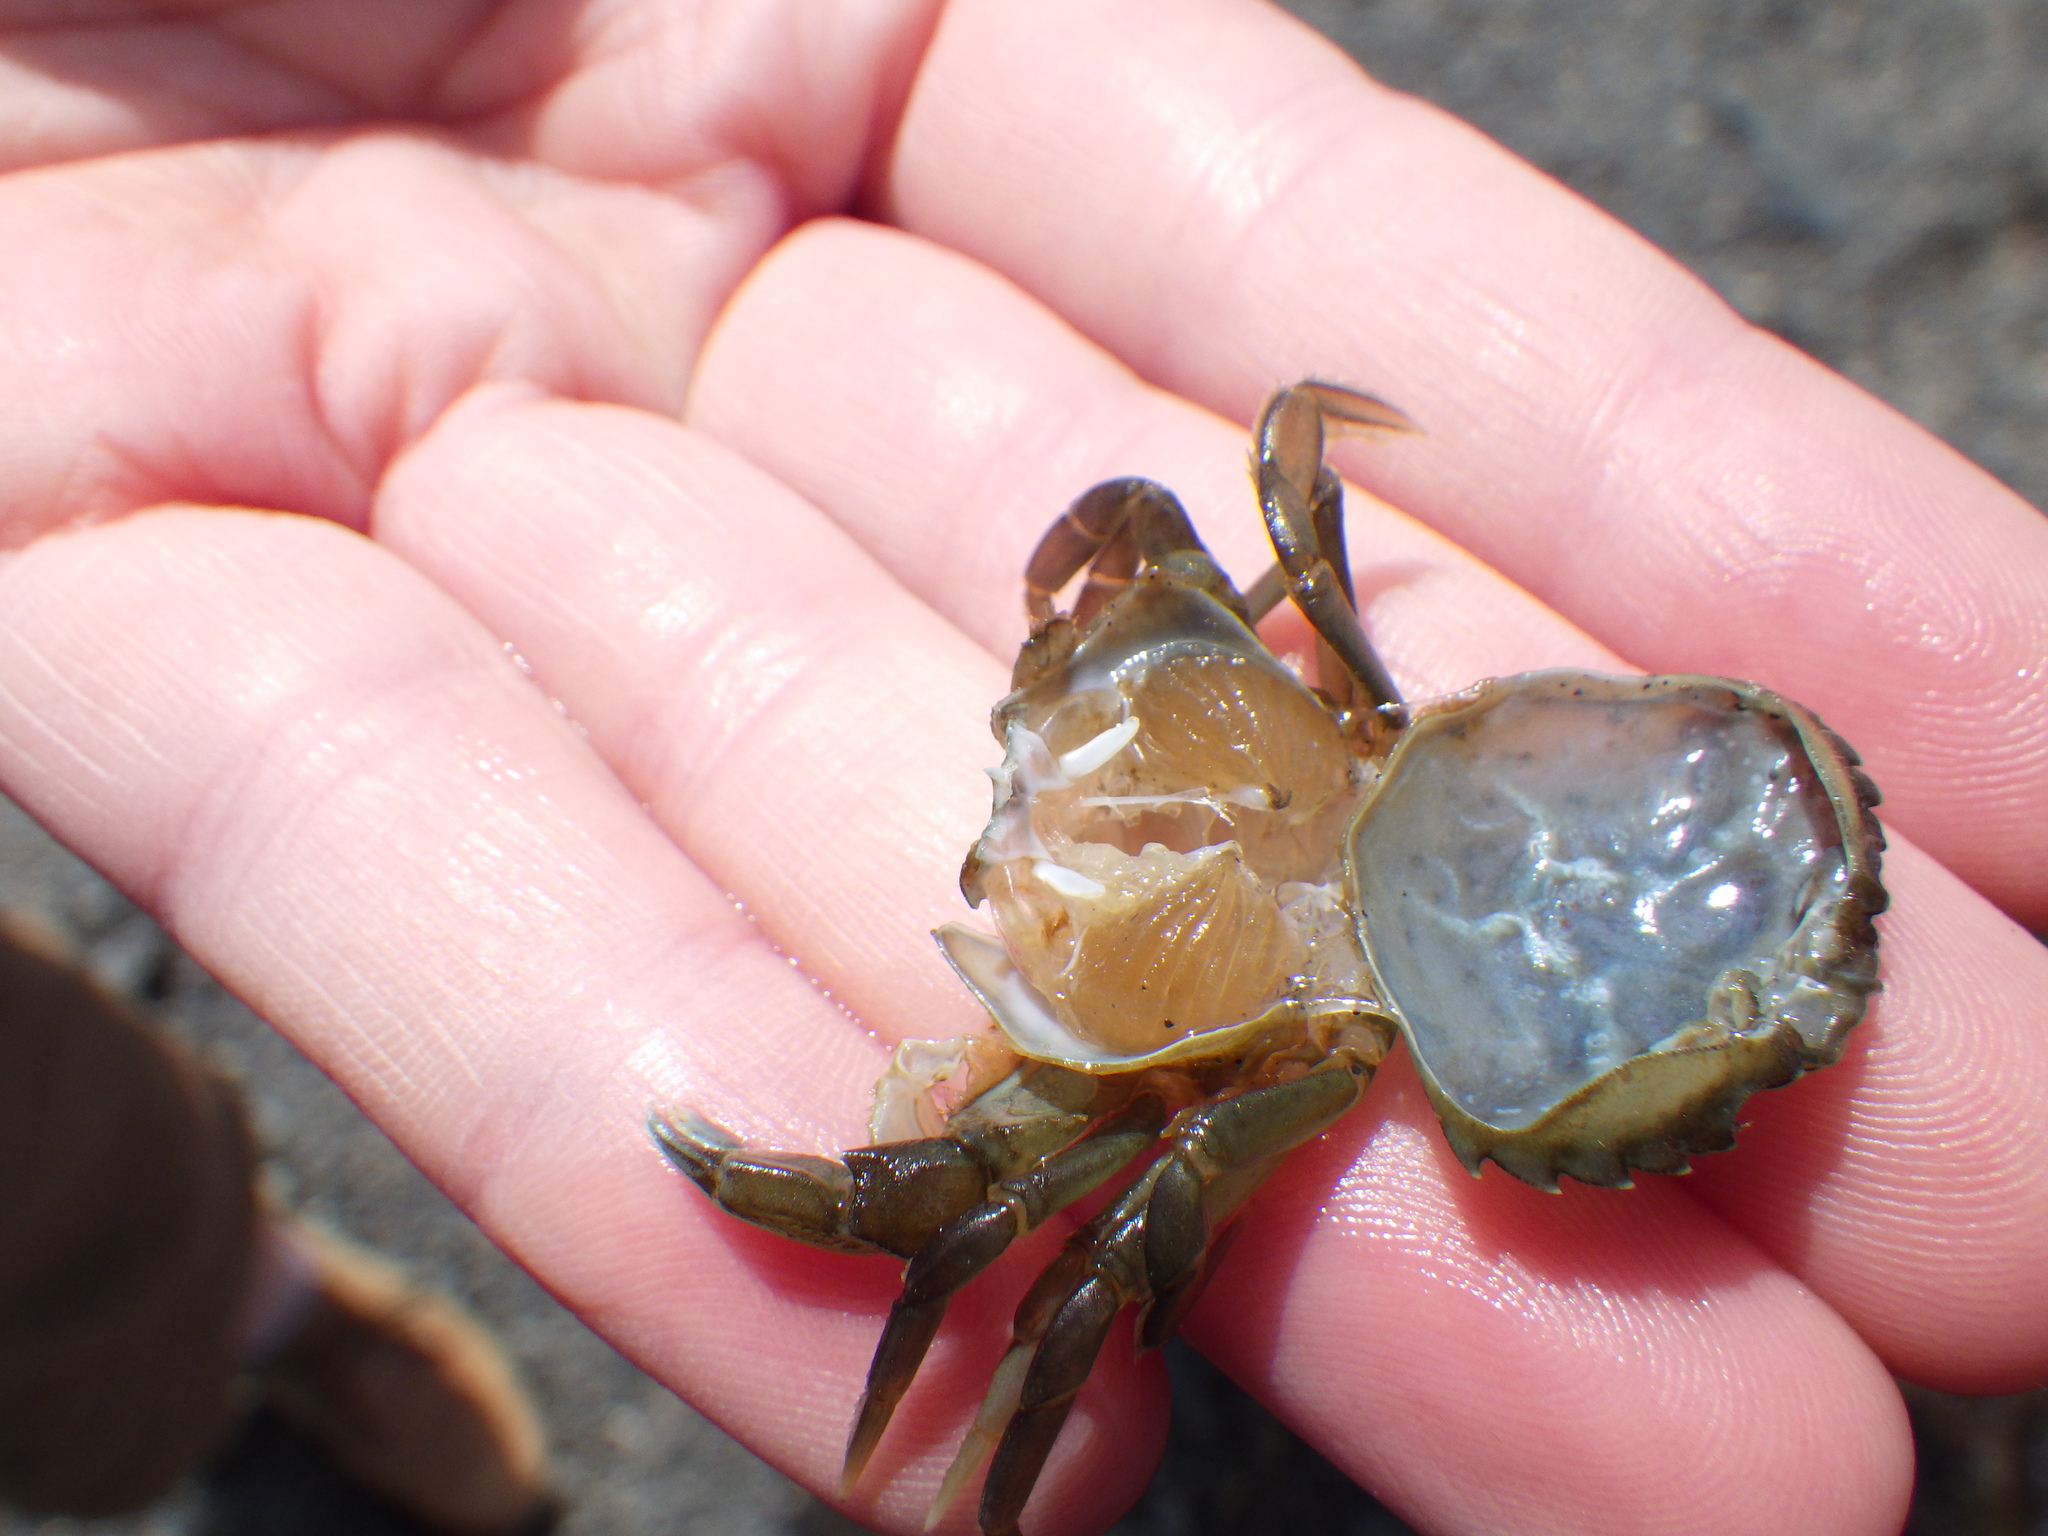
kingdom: Animalia
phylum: Arthropoda
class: Malacostraca
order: Decapoda
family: Carcinidae
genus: Carcinus
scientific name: Carcinus maenas
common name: European green crab
